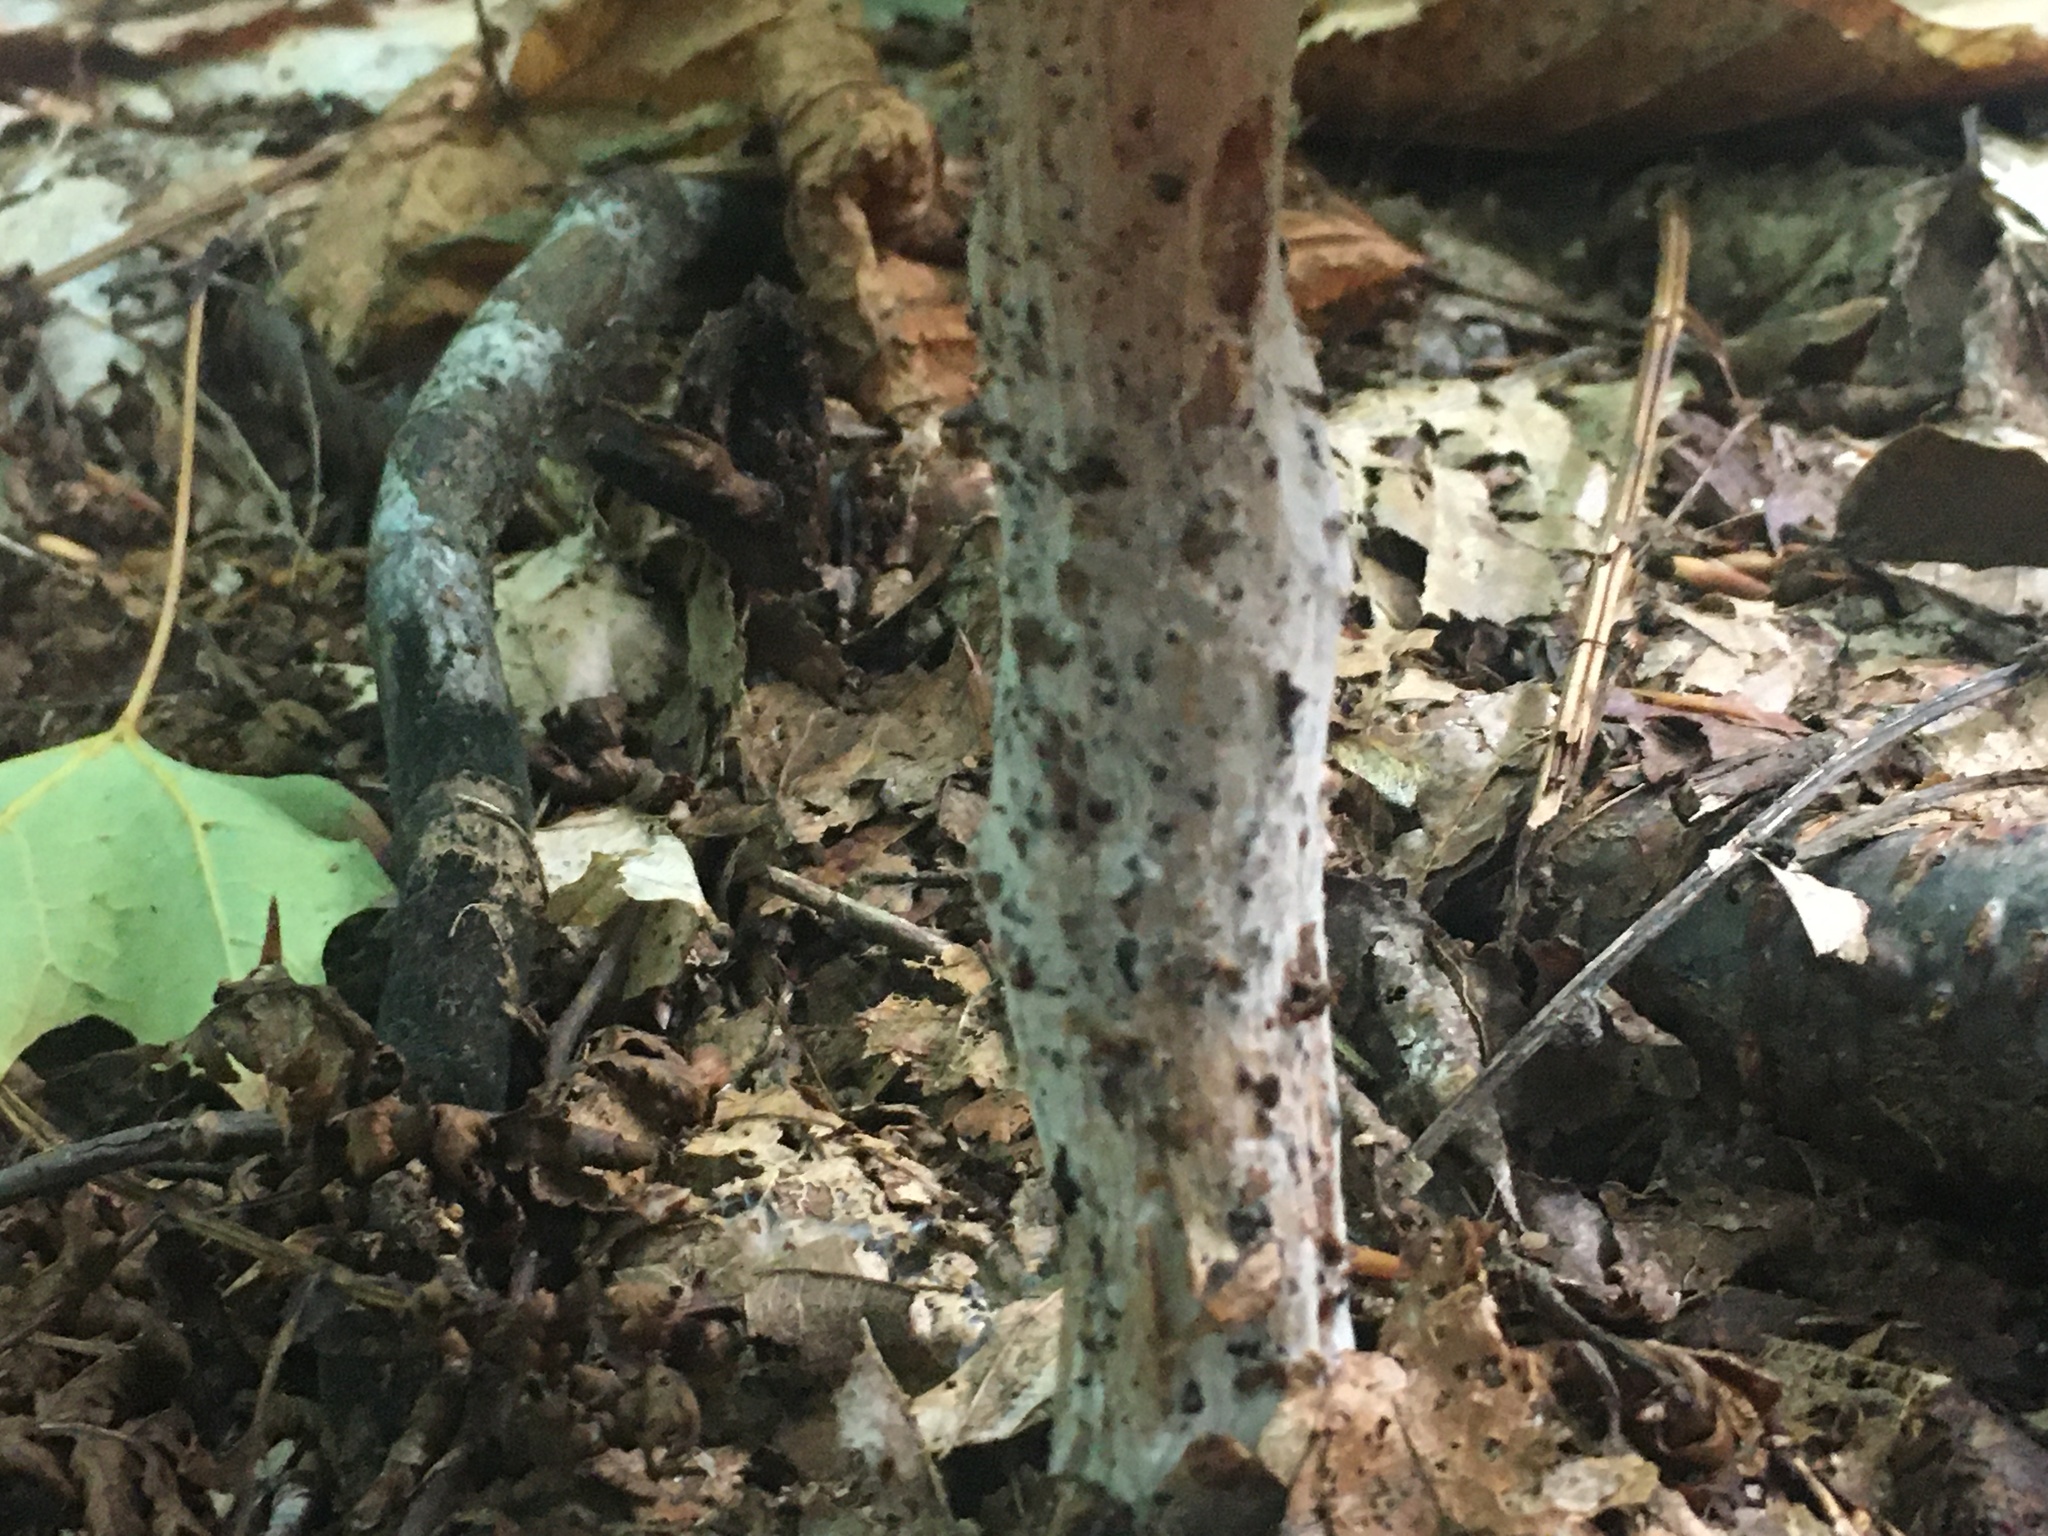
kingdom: Fungi
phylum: Basidiomycota
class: Agaricomycetes
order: Agaricales
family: Hydnangiaceae
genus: Laccaria
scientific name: Laccaria ochropurpurea
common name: Purple laccaria
